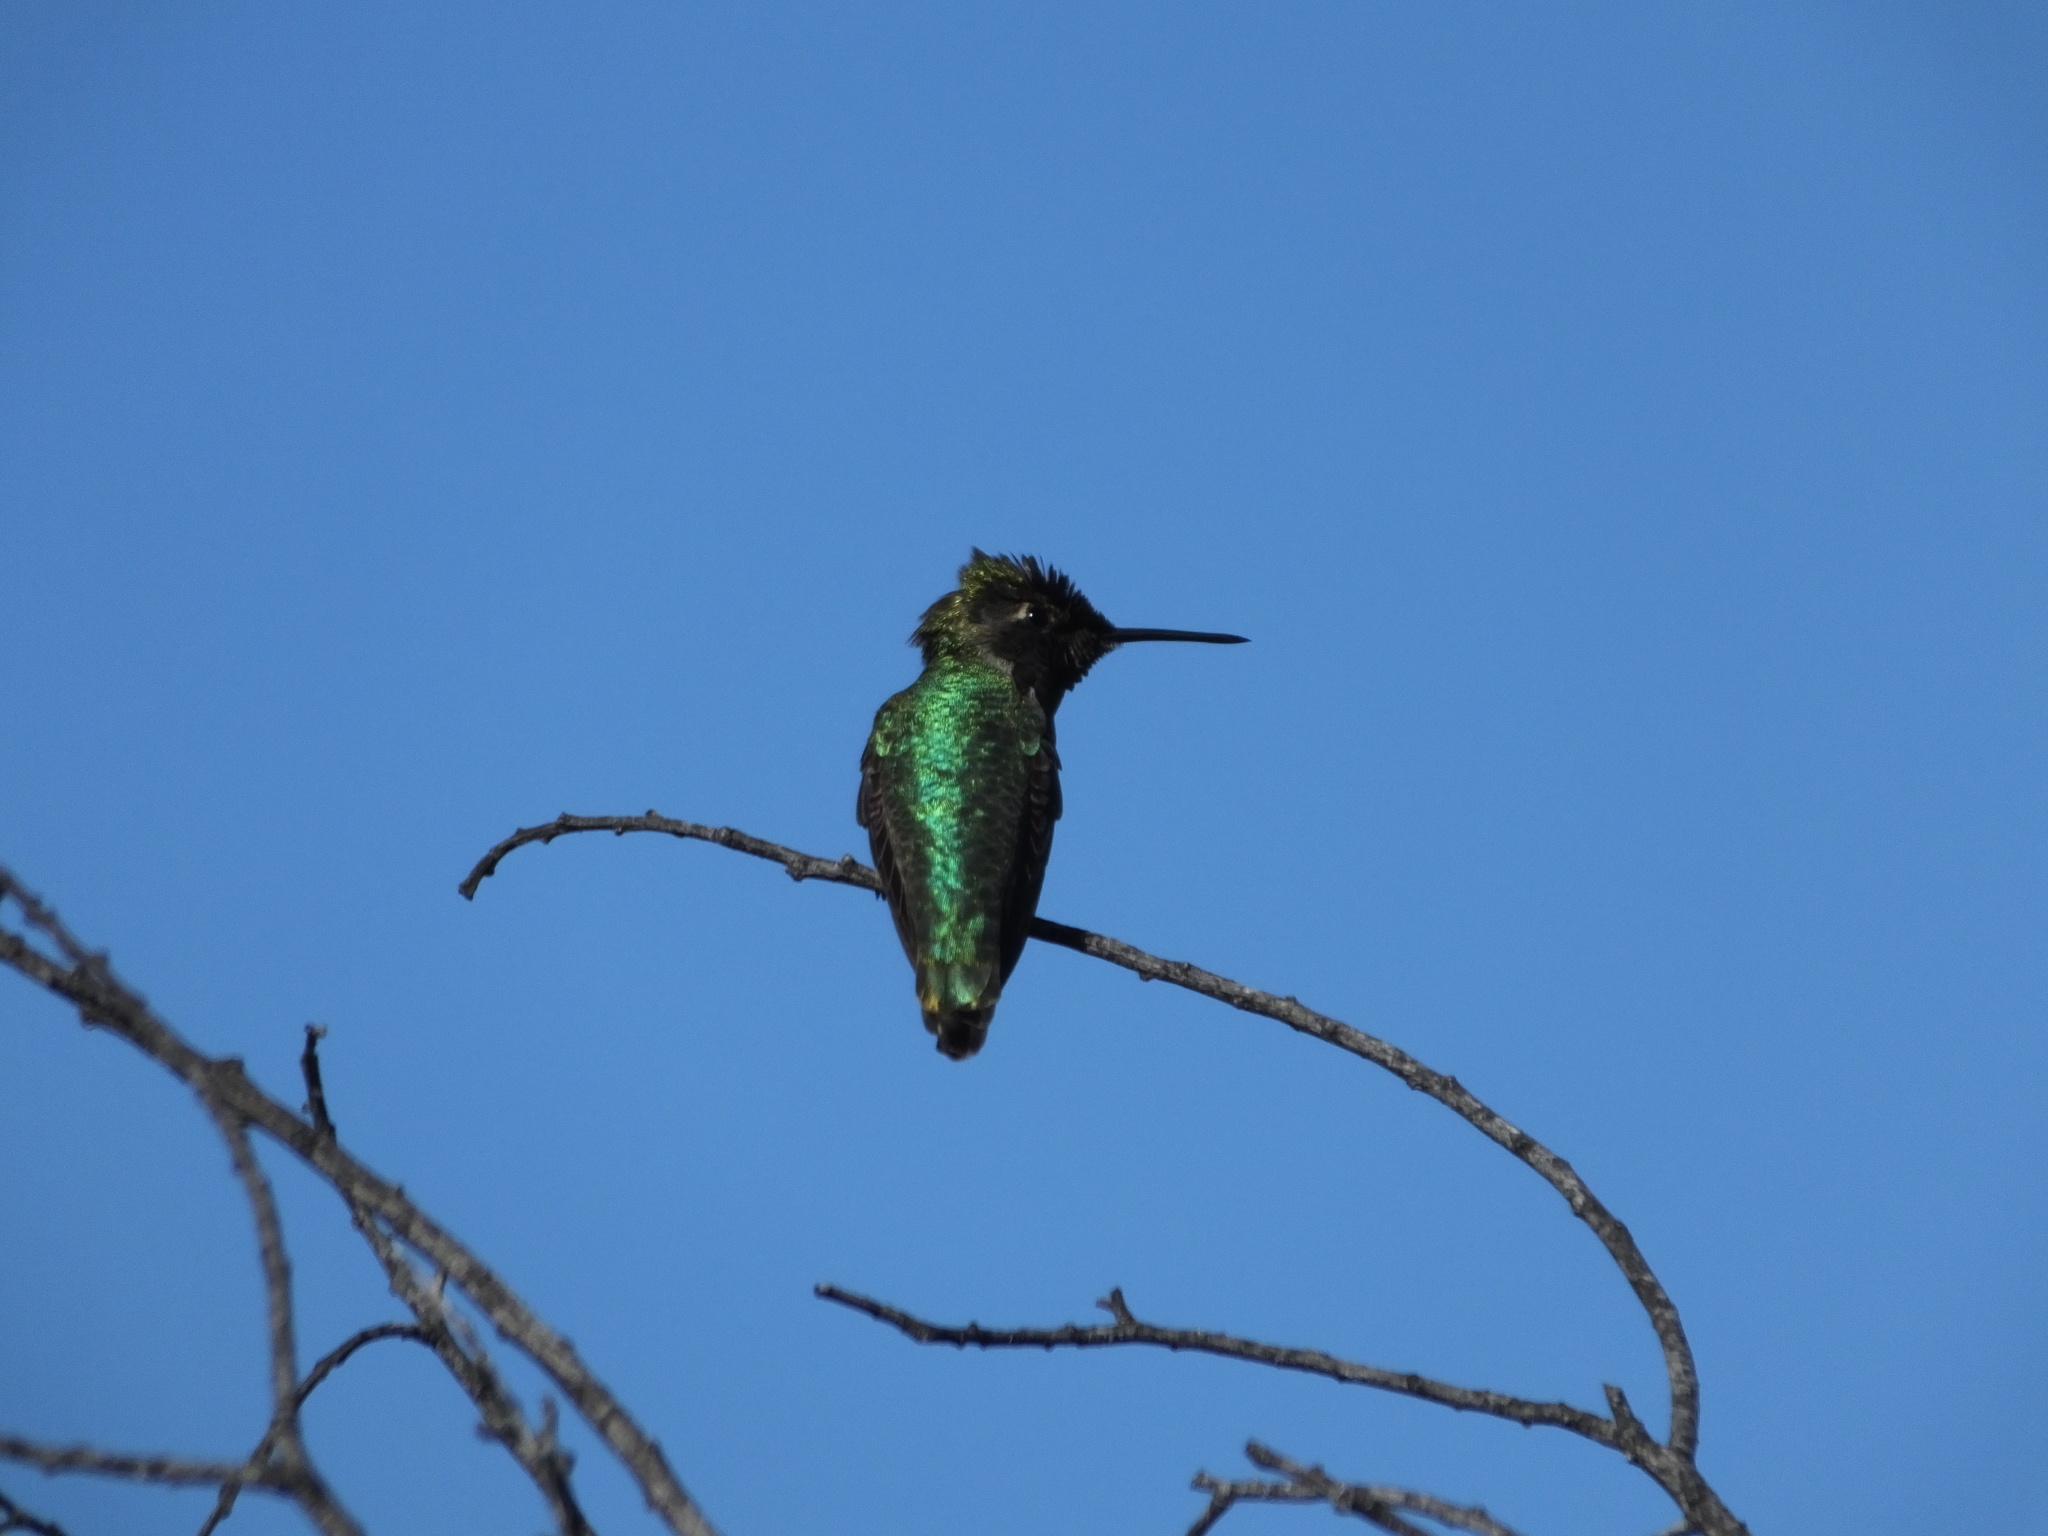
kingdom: Animalia
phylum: Chordata
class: Aves
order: Apodiformes
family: Trochilidae
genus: Calypte
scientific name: Calypte anna
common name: Anna's hummingbird
